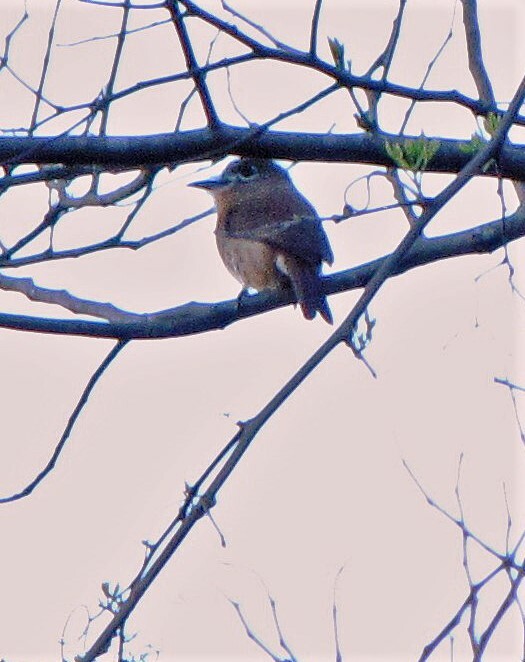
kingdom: Animalia
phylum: Chordata
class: Aves
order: Piciformes
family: Bucconidae
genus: Nonnula
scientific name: Nonnula rubecula
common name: Rusty-breasted nunlet
